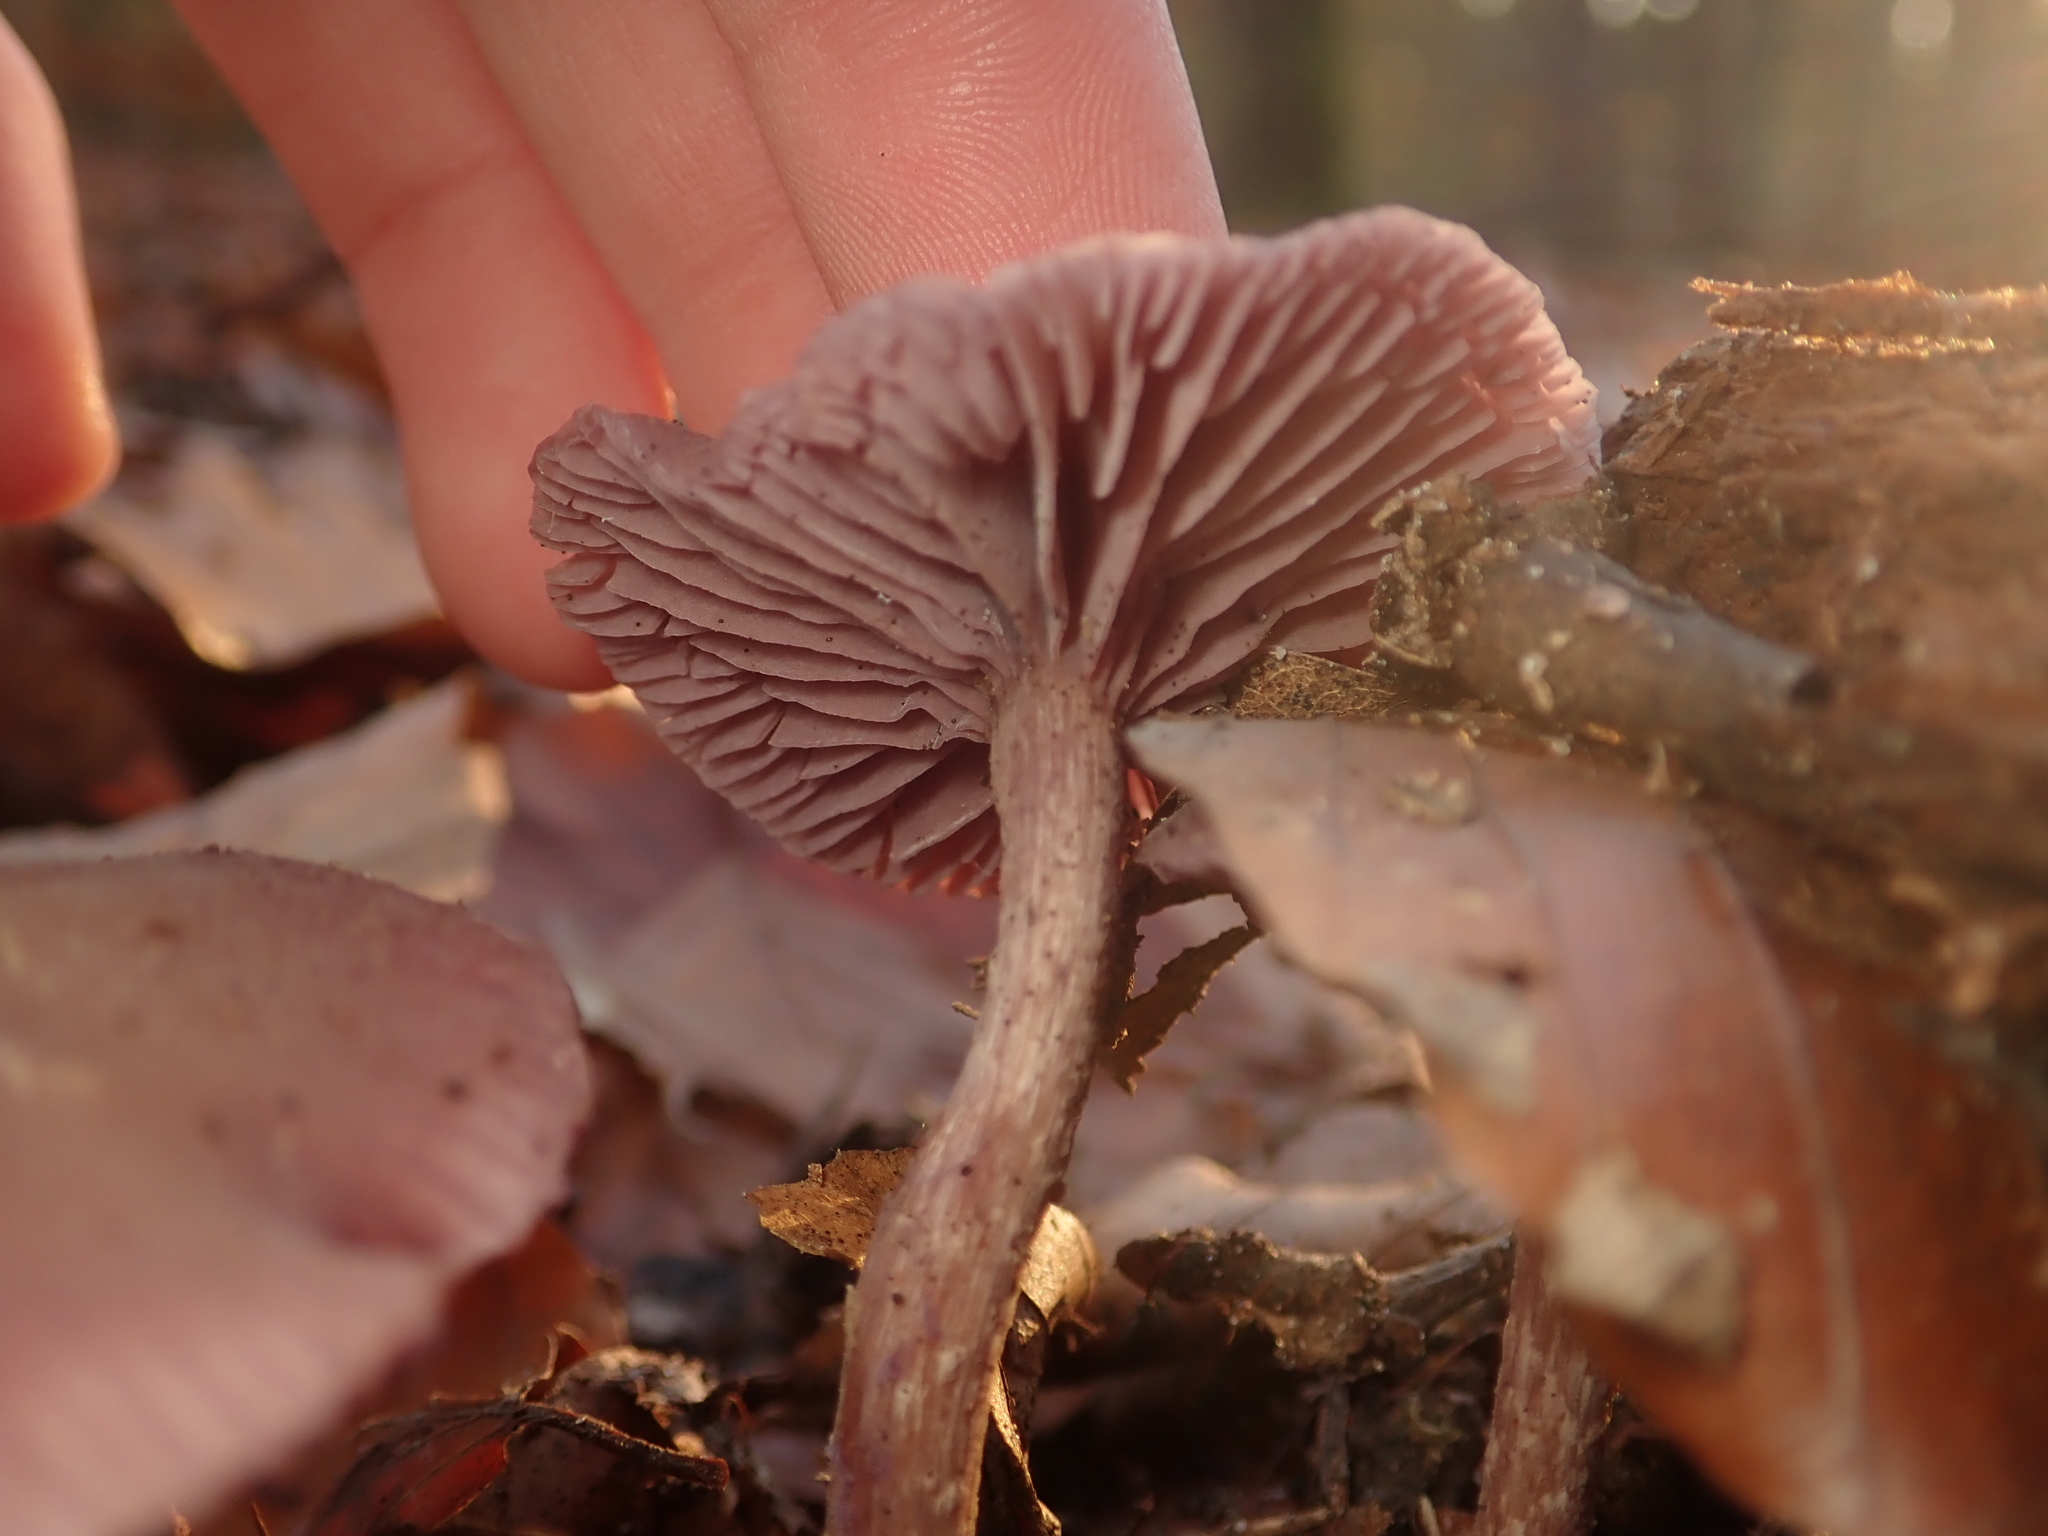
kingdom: Fungi
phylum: Basidiomycota
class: Agaricomycetes
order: Agaricales
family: Hydnangiaceae
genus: Laccaria
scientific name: Laccaria amethystina
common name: Amethyst deceiver
